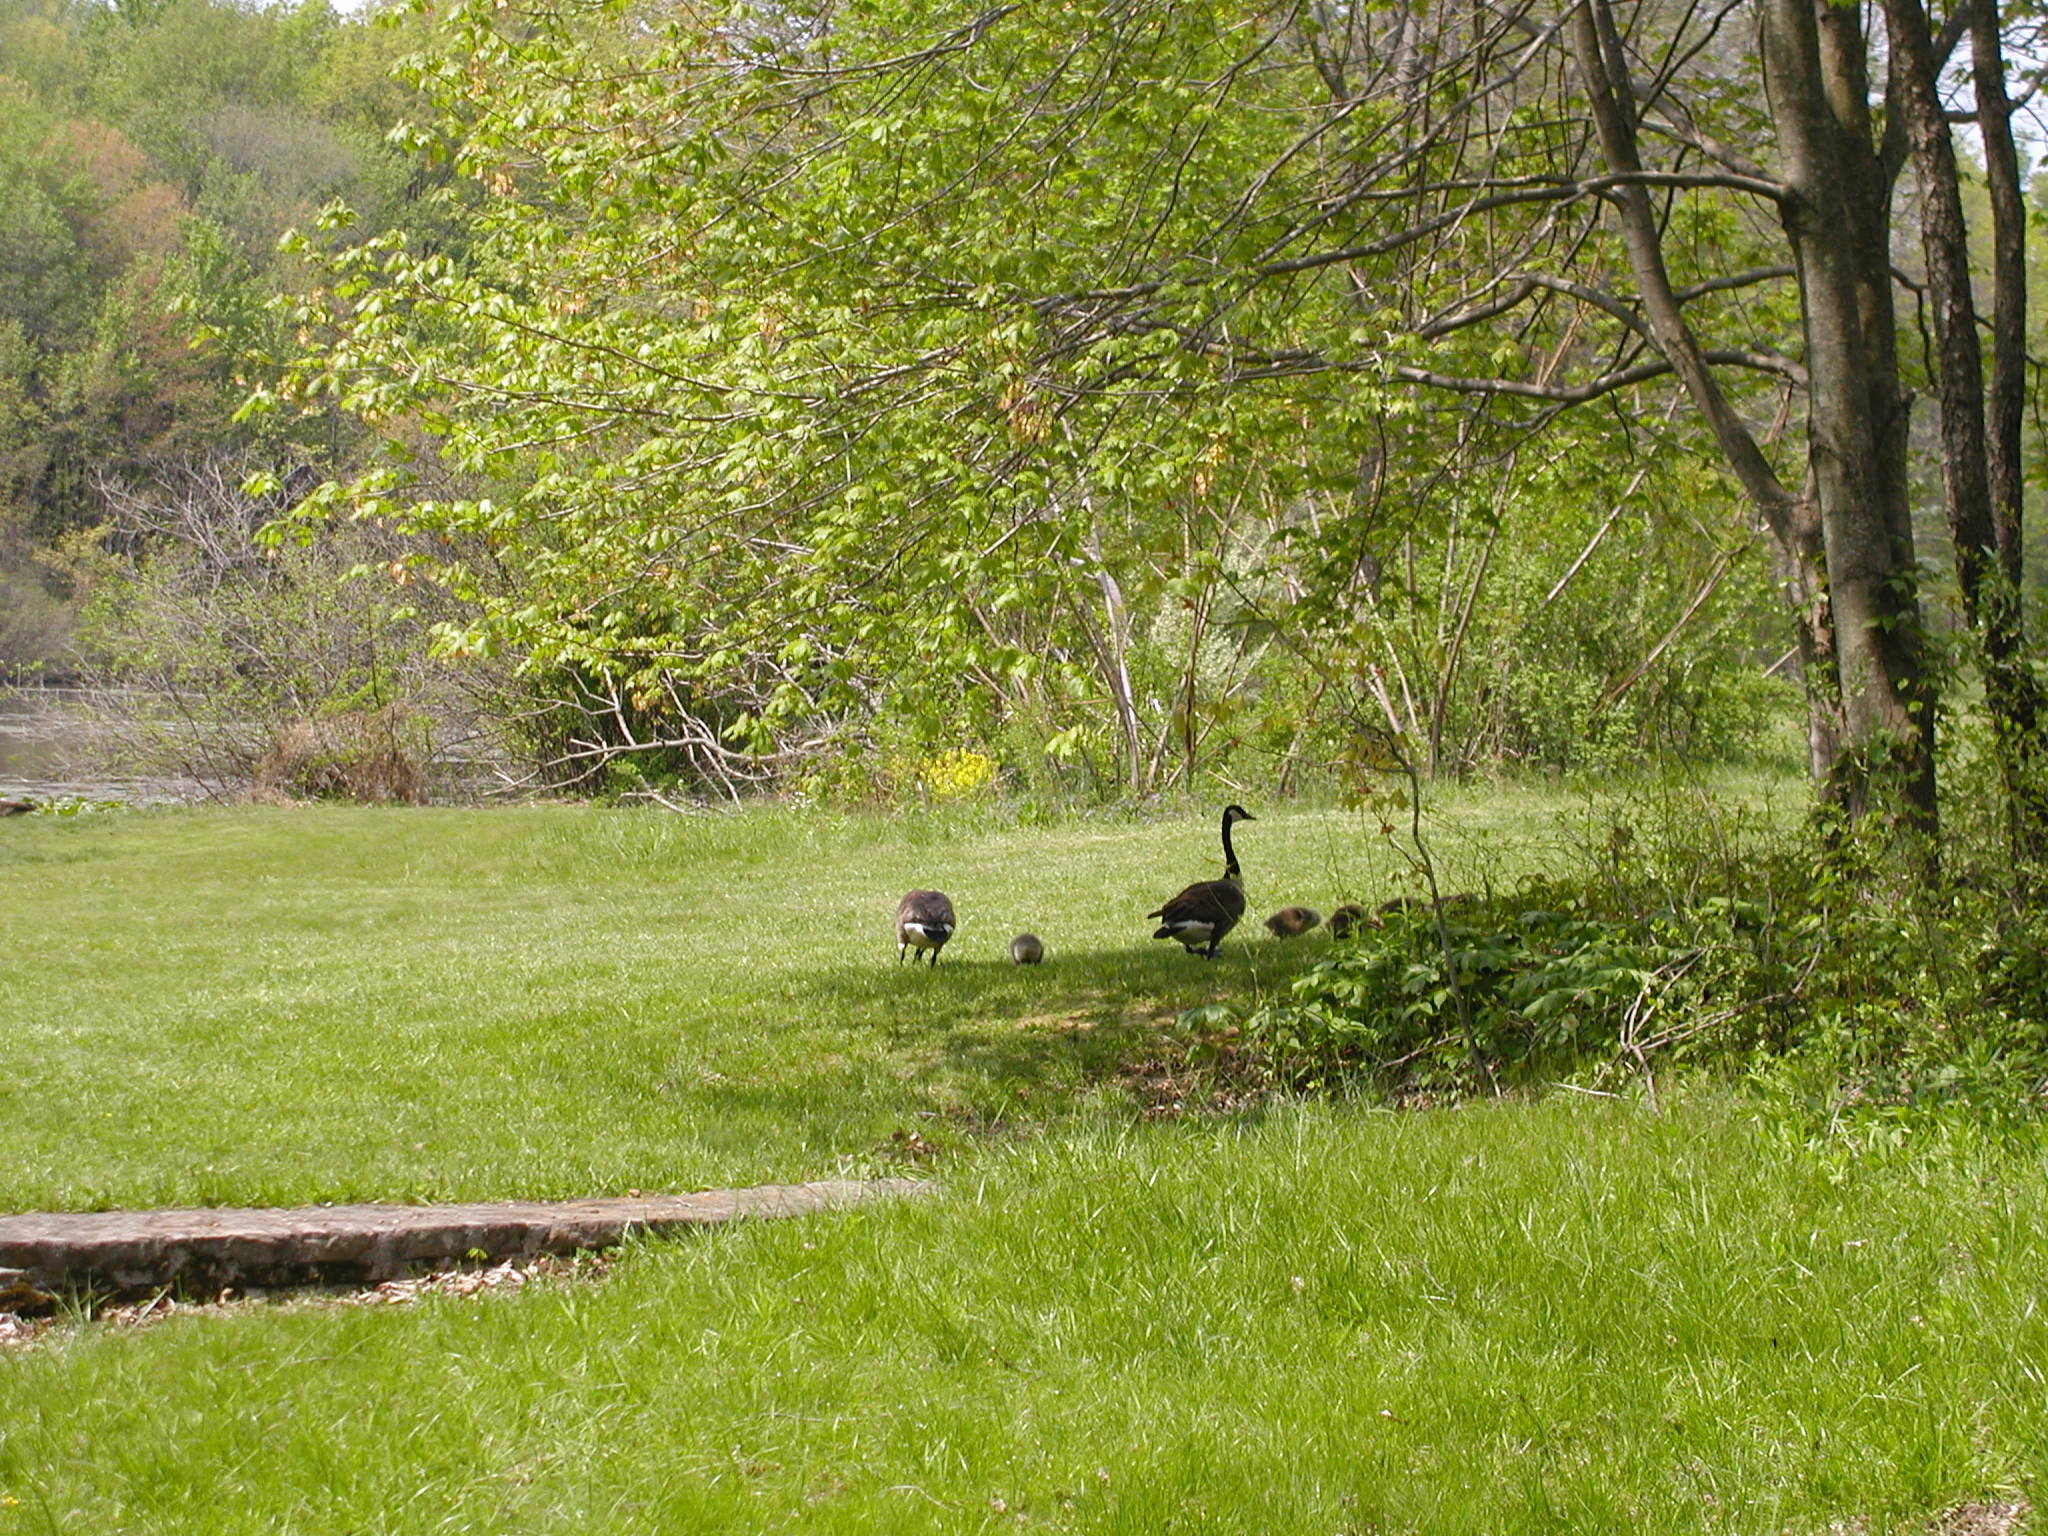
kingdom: Animalia
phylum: Chordata
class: Aves
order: Anseriformes
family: Anatidae
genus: Branta
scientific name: Branta canadensis
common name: Canada goose
